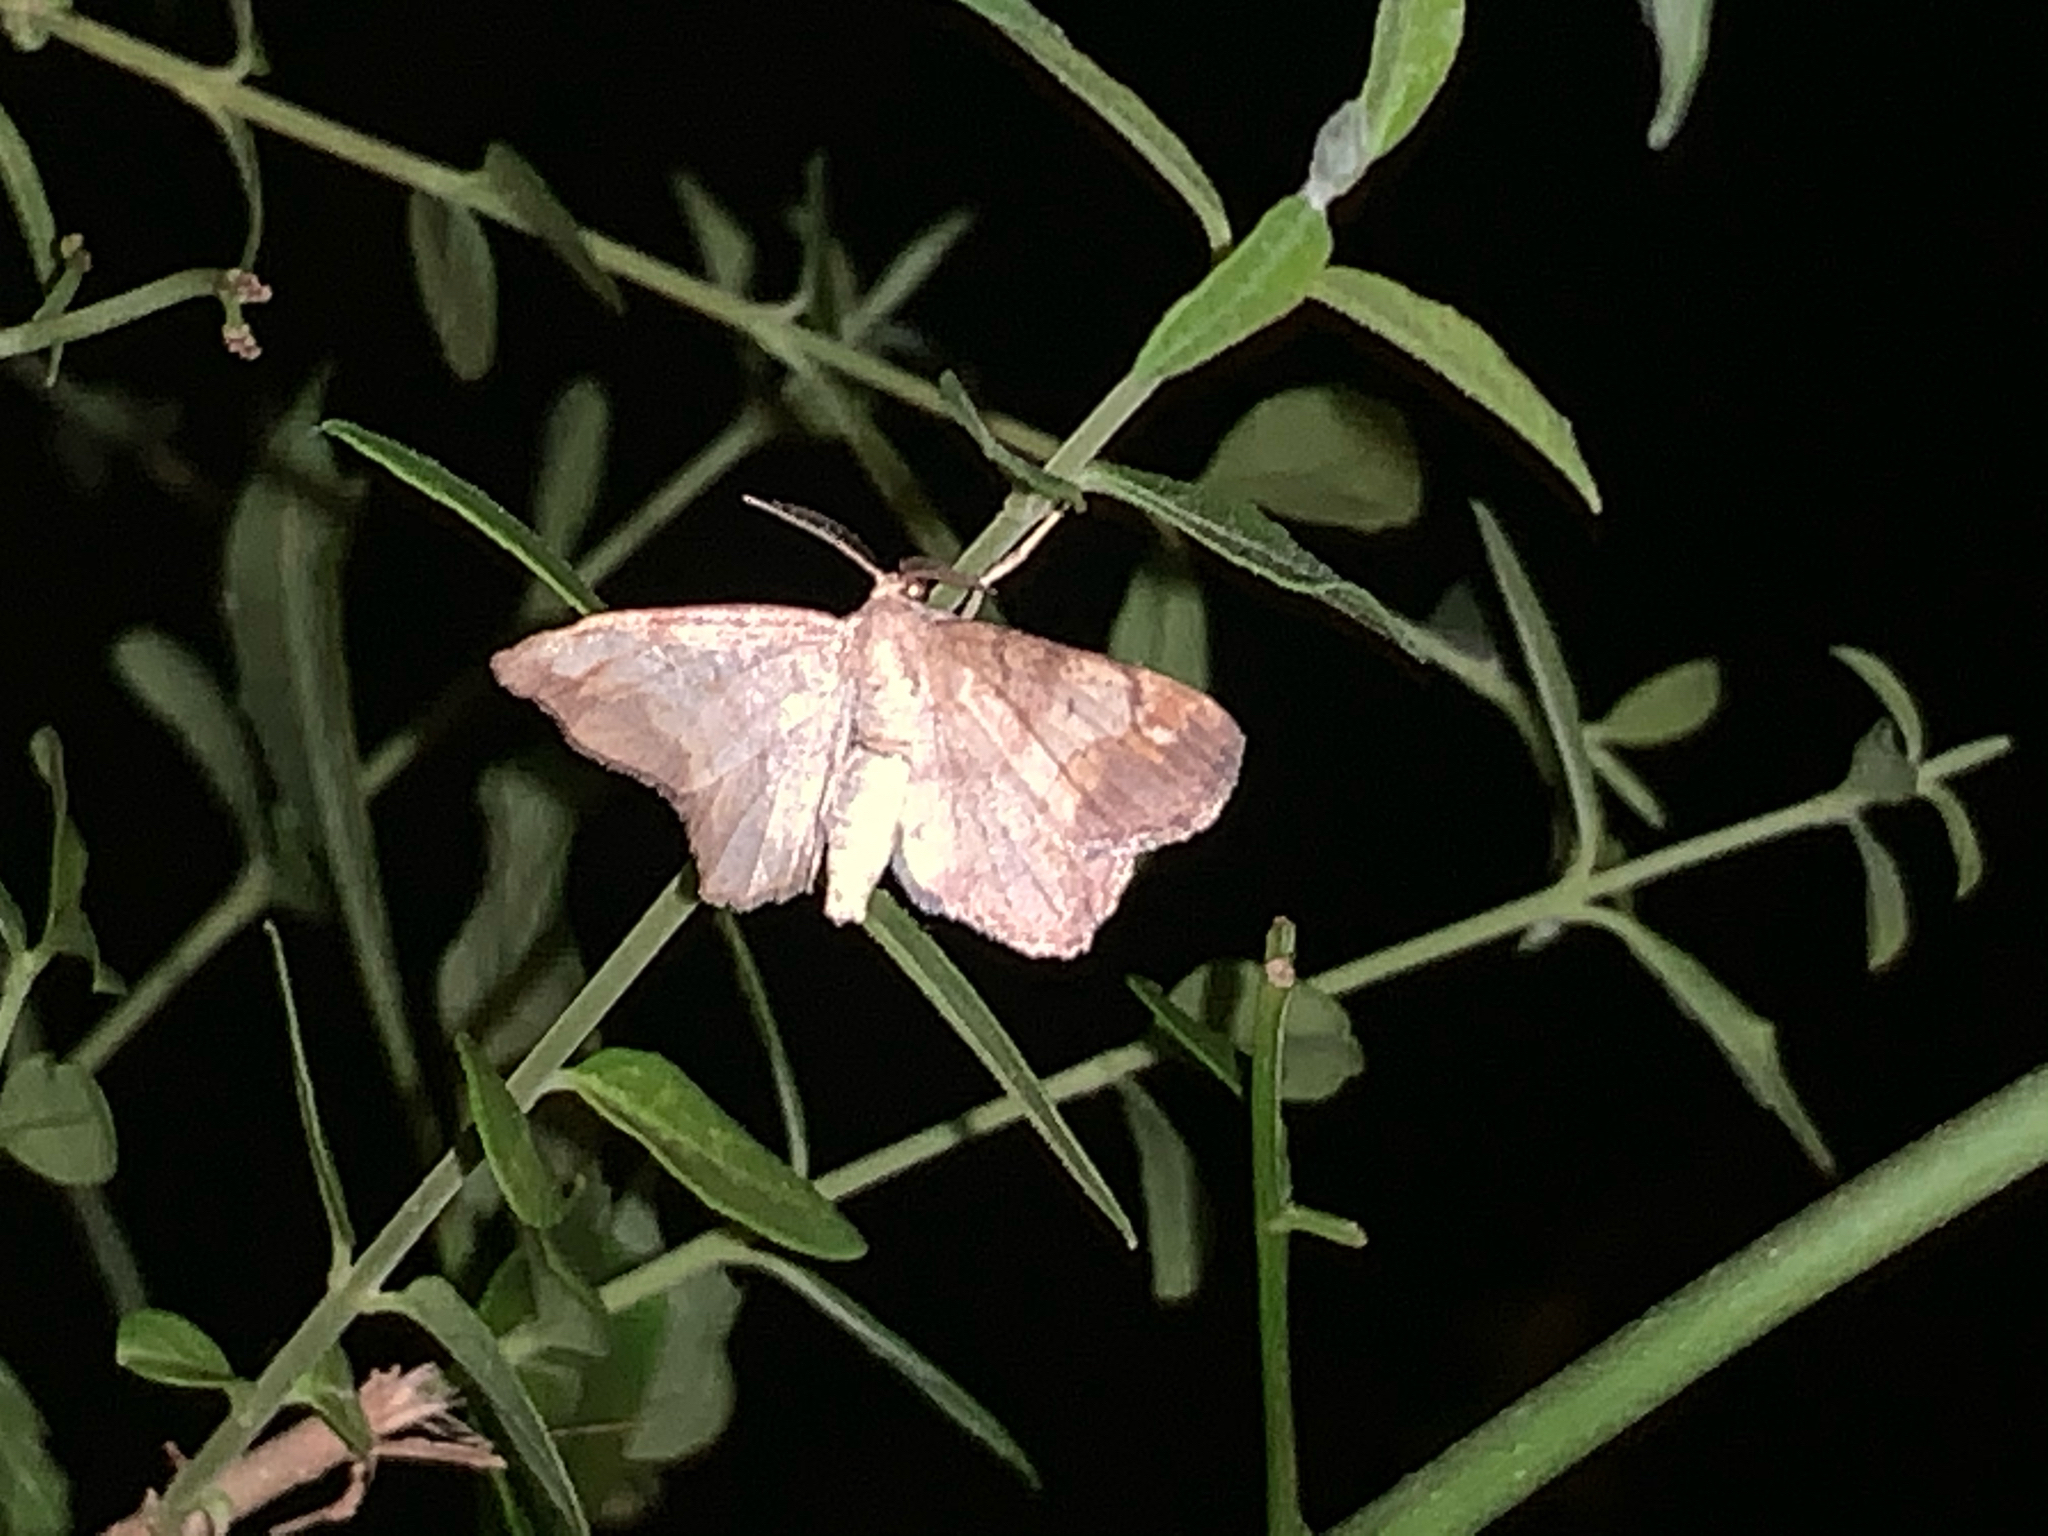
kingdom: Animalia
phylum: Arthropoda
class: Insecta
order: Lepidoptera
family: Geometridae
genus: Hypagyrtis
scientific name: Hypagyrtis
